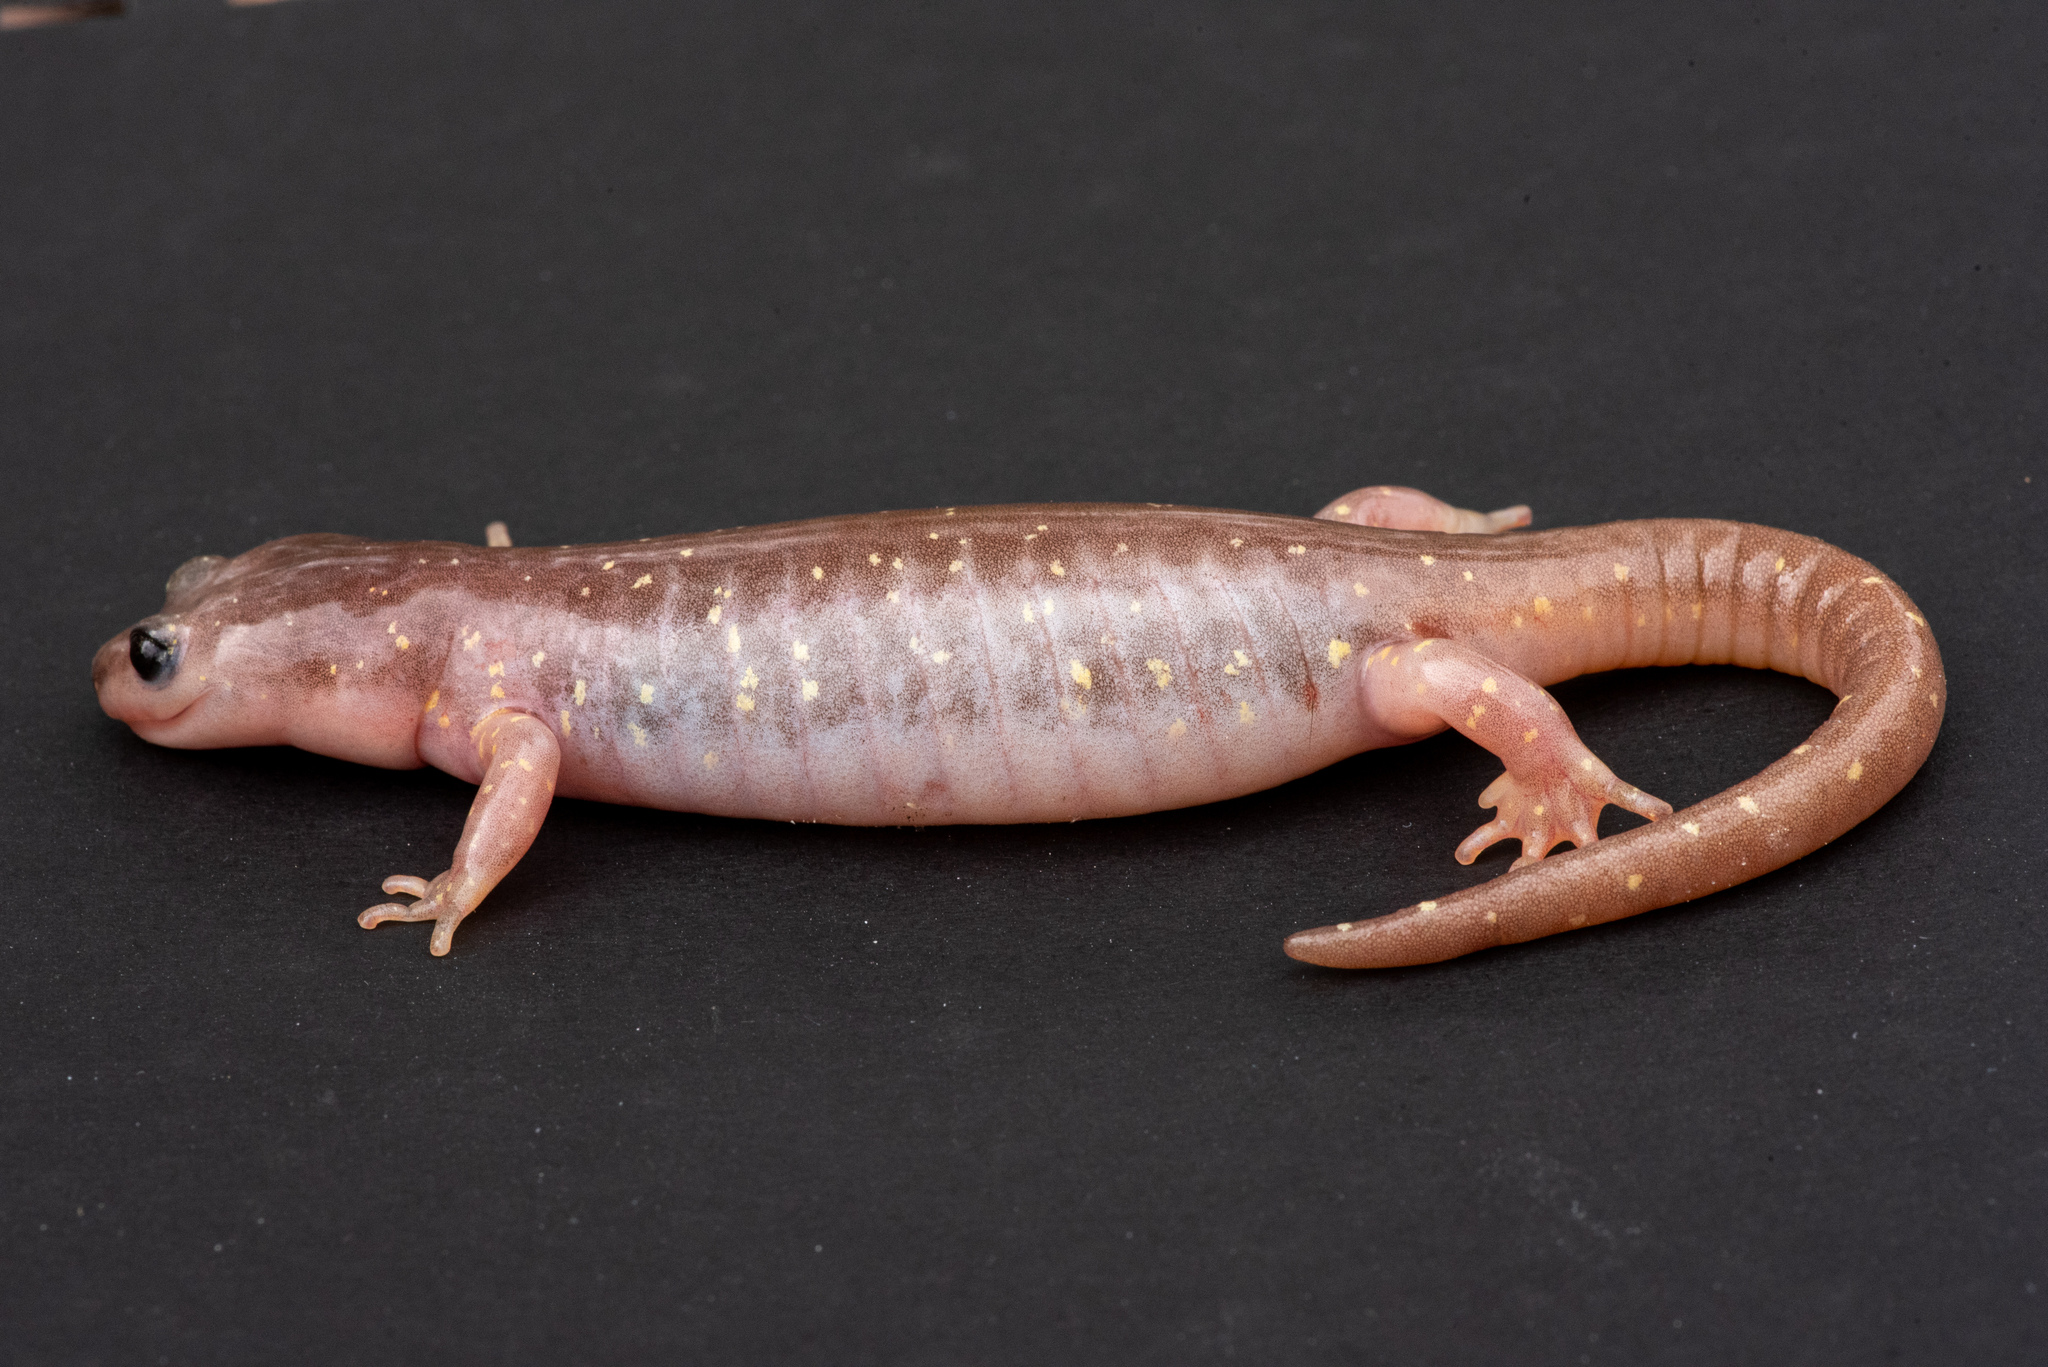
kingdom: Animalia
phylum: Chordata
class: Amphibia
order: Caudata
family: Plethodontidae
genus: Aneides
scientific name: Aneides lugubris
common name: Arboreal salamander
